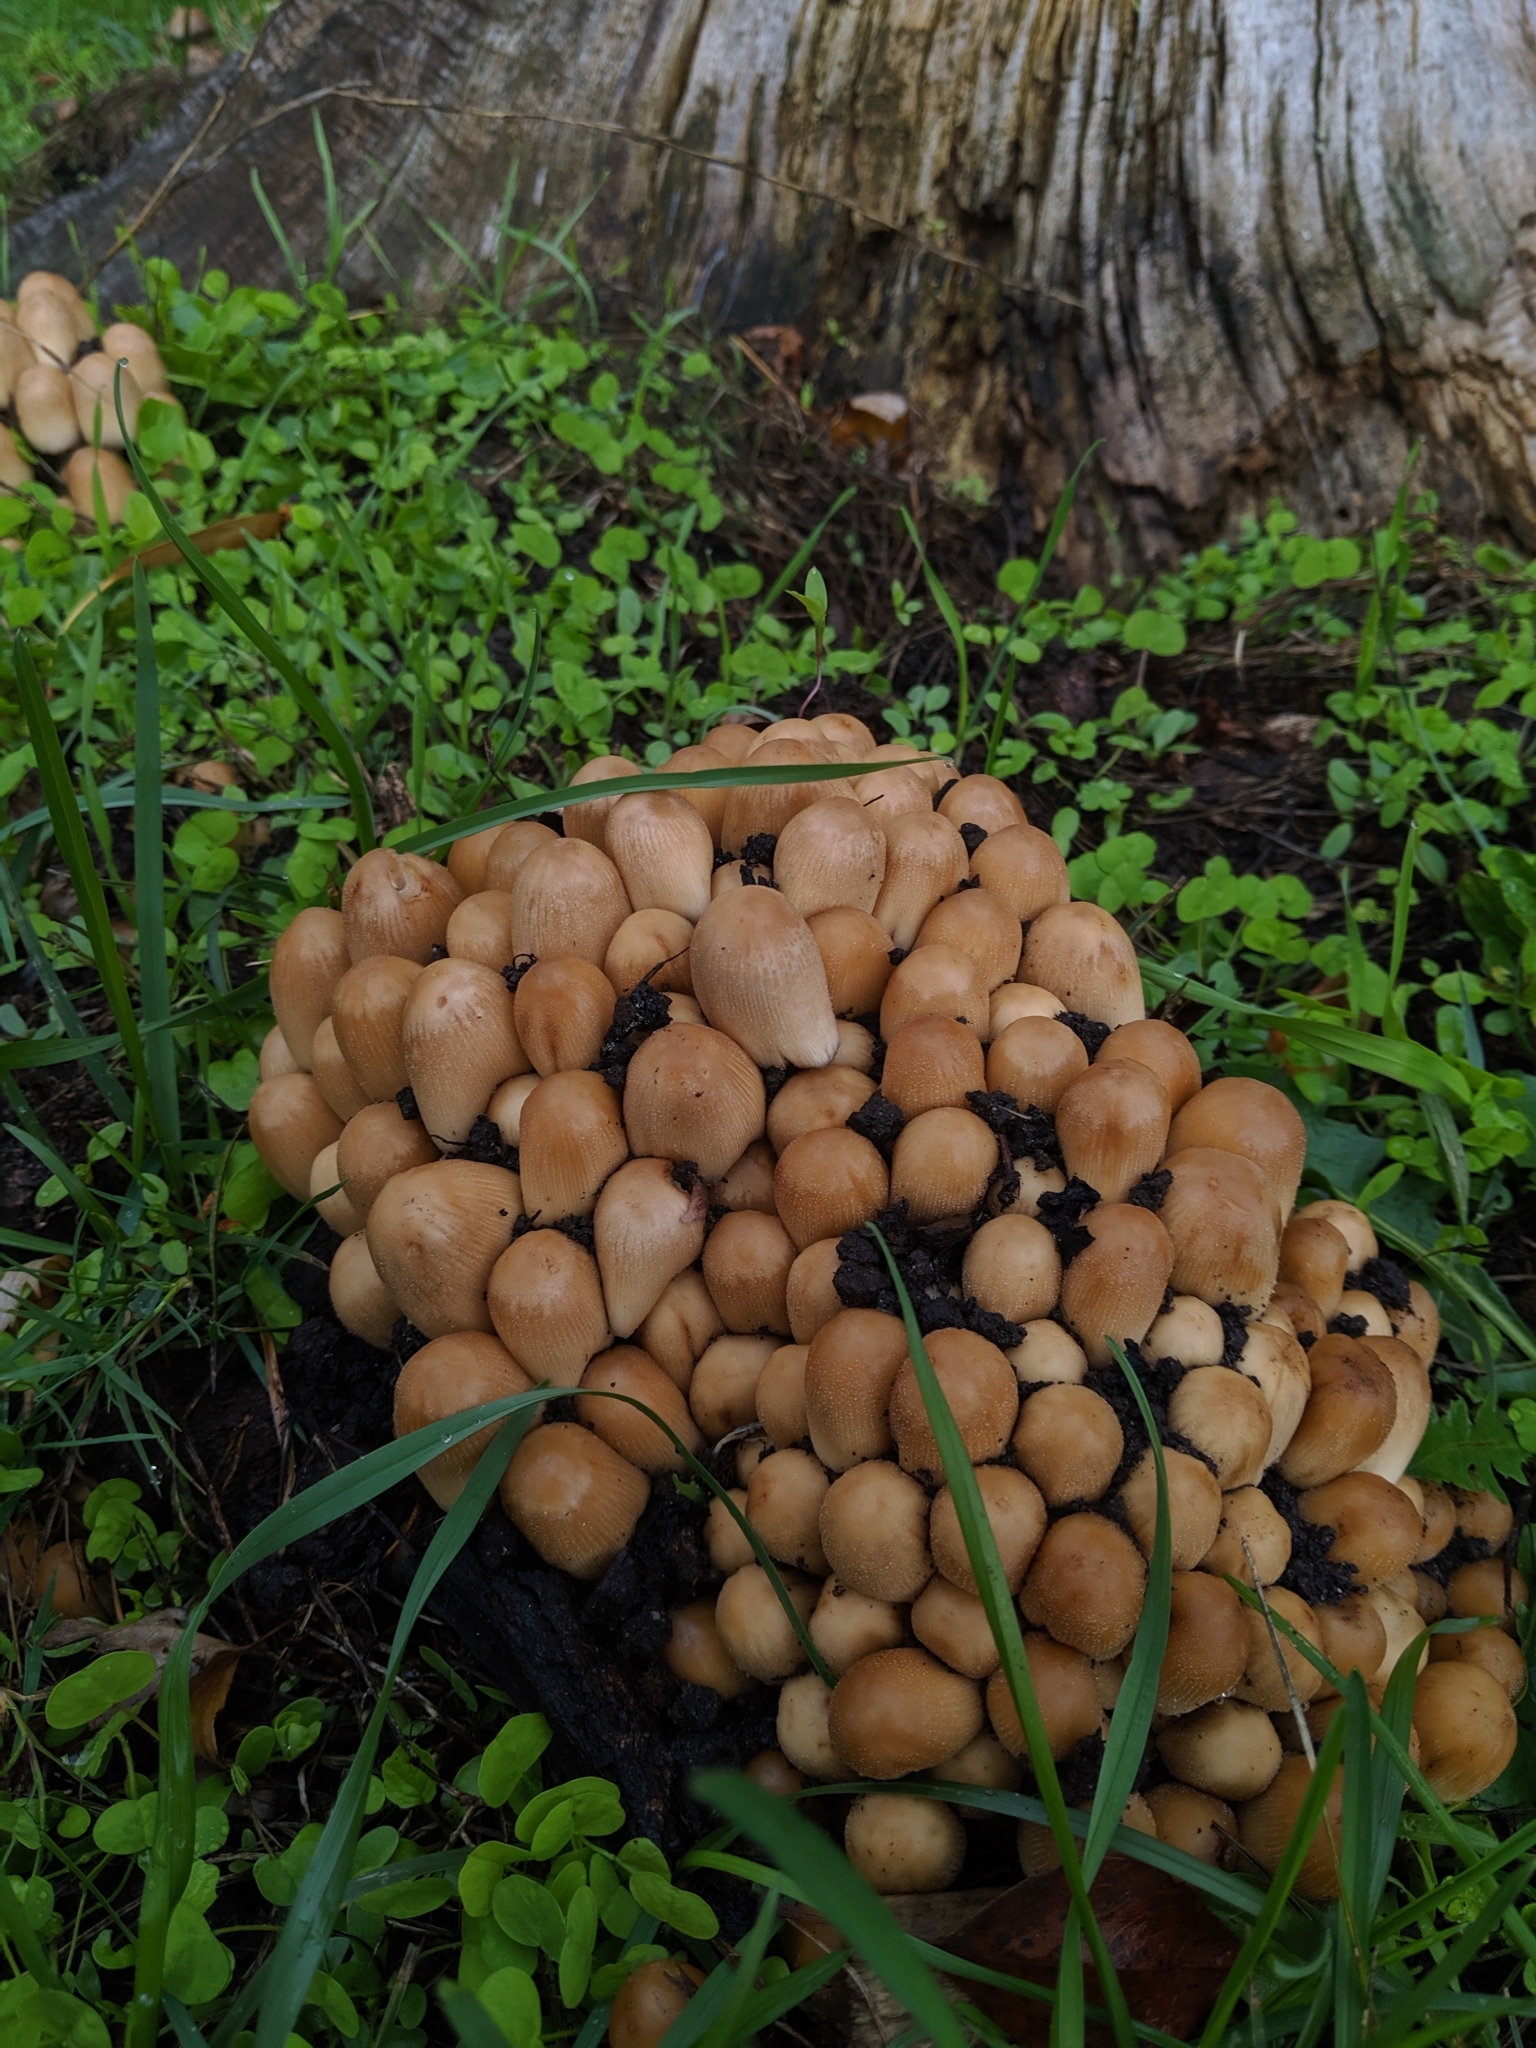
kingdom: Fungi
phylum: Basidiomycota
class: Agaricomycetes
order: Agaricales
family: Psathyrellaceae
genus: Coprinellus
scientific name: Coprinellus micaceus
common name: Glistening ink-cap
